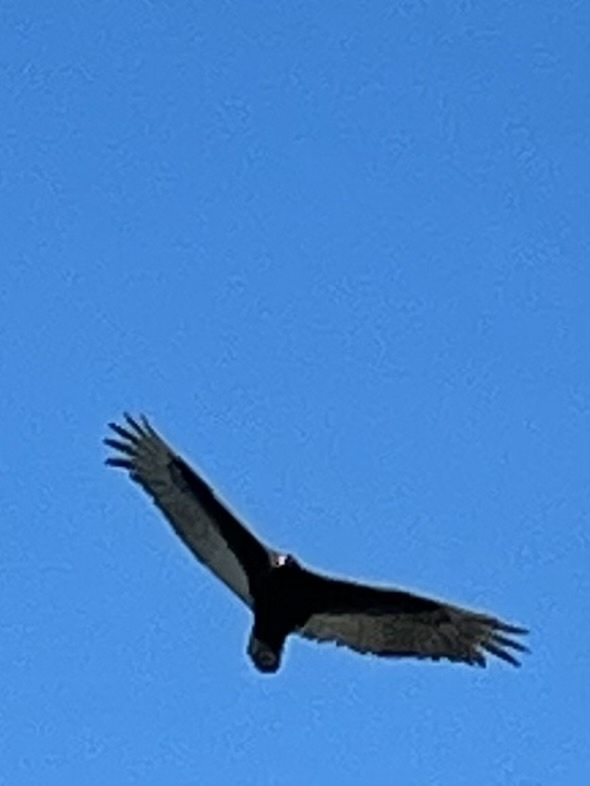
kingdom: Animalia
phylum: Chordata
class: Aves
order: Accipitriformes
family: Cathartidae
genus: Cathartes
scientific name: Cathartes aura
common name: Turkey vulture
